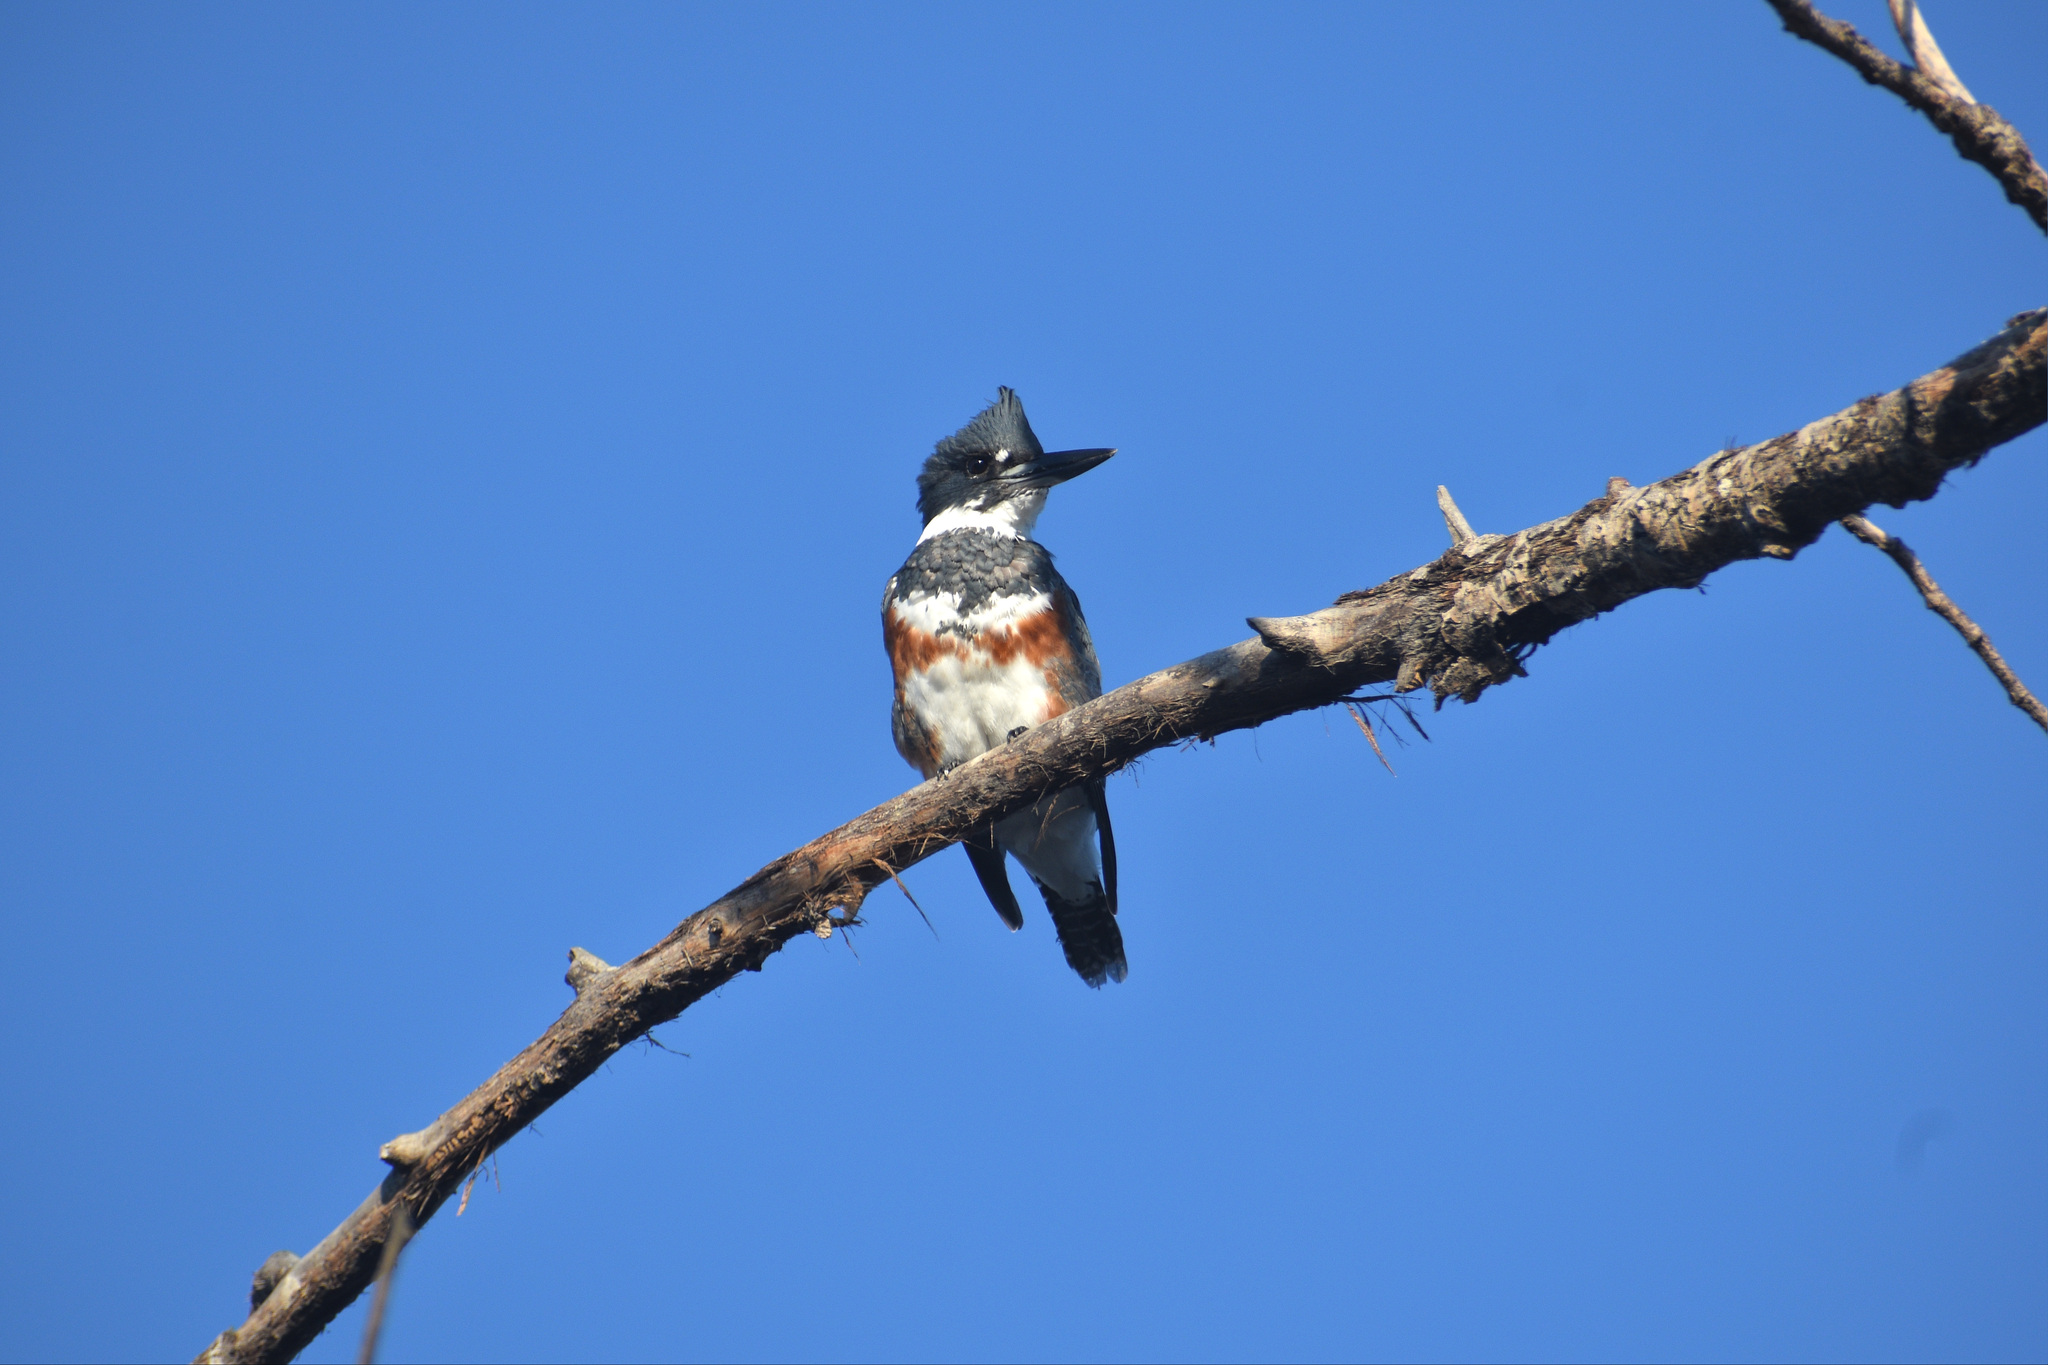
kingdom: Animalia
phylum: Chordata
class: Aves
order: Coraciiformes
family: Alcedinidae
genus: Megaceryle
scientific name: Megaceryle alcyon
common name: Belted kingfisher
